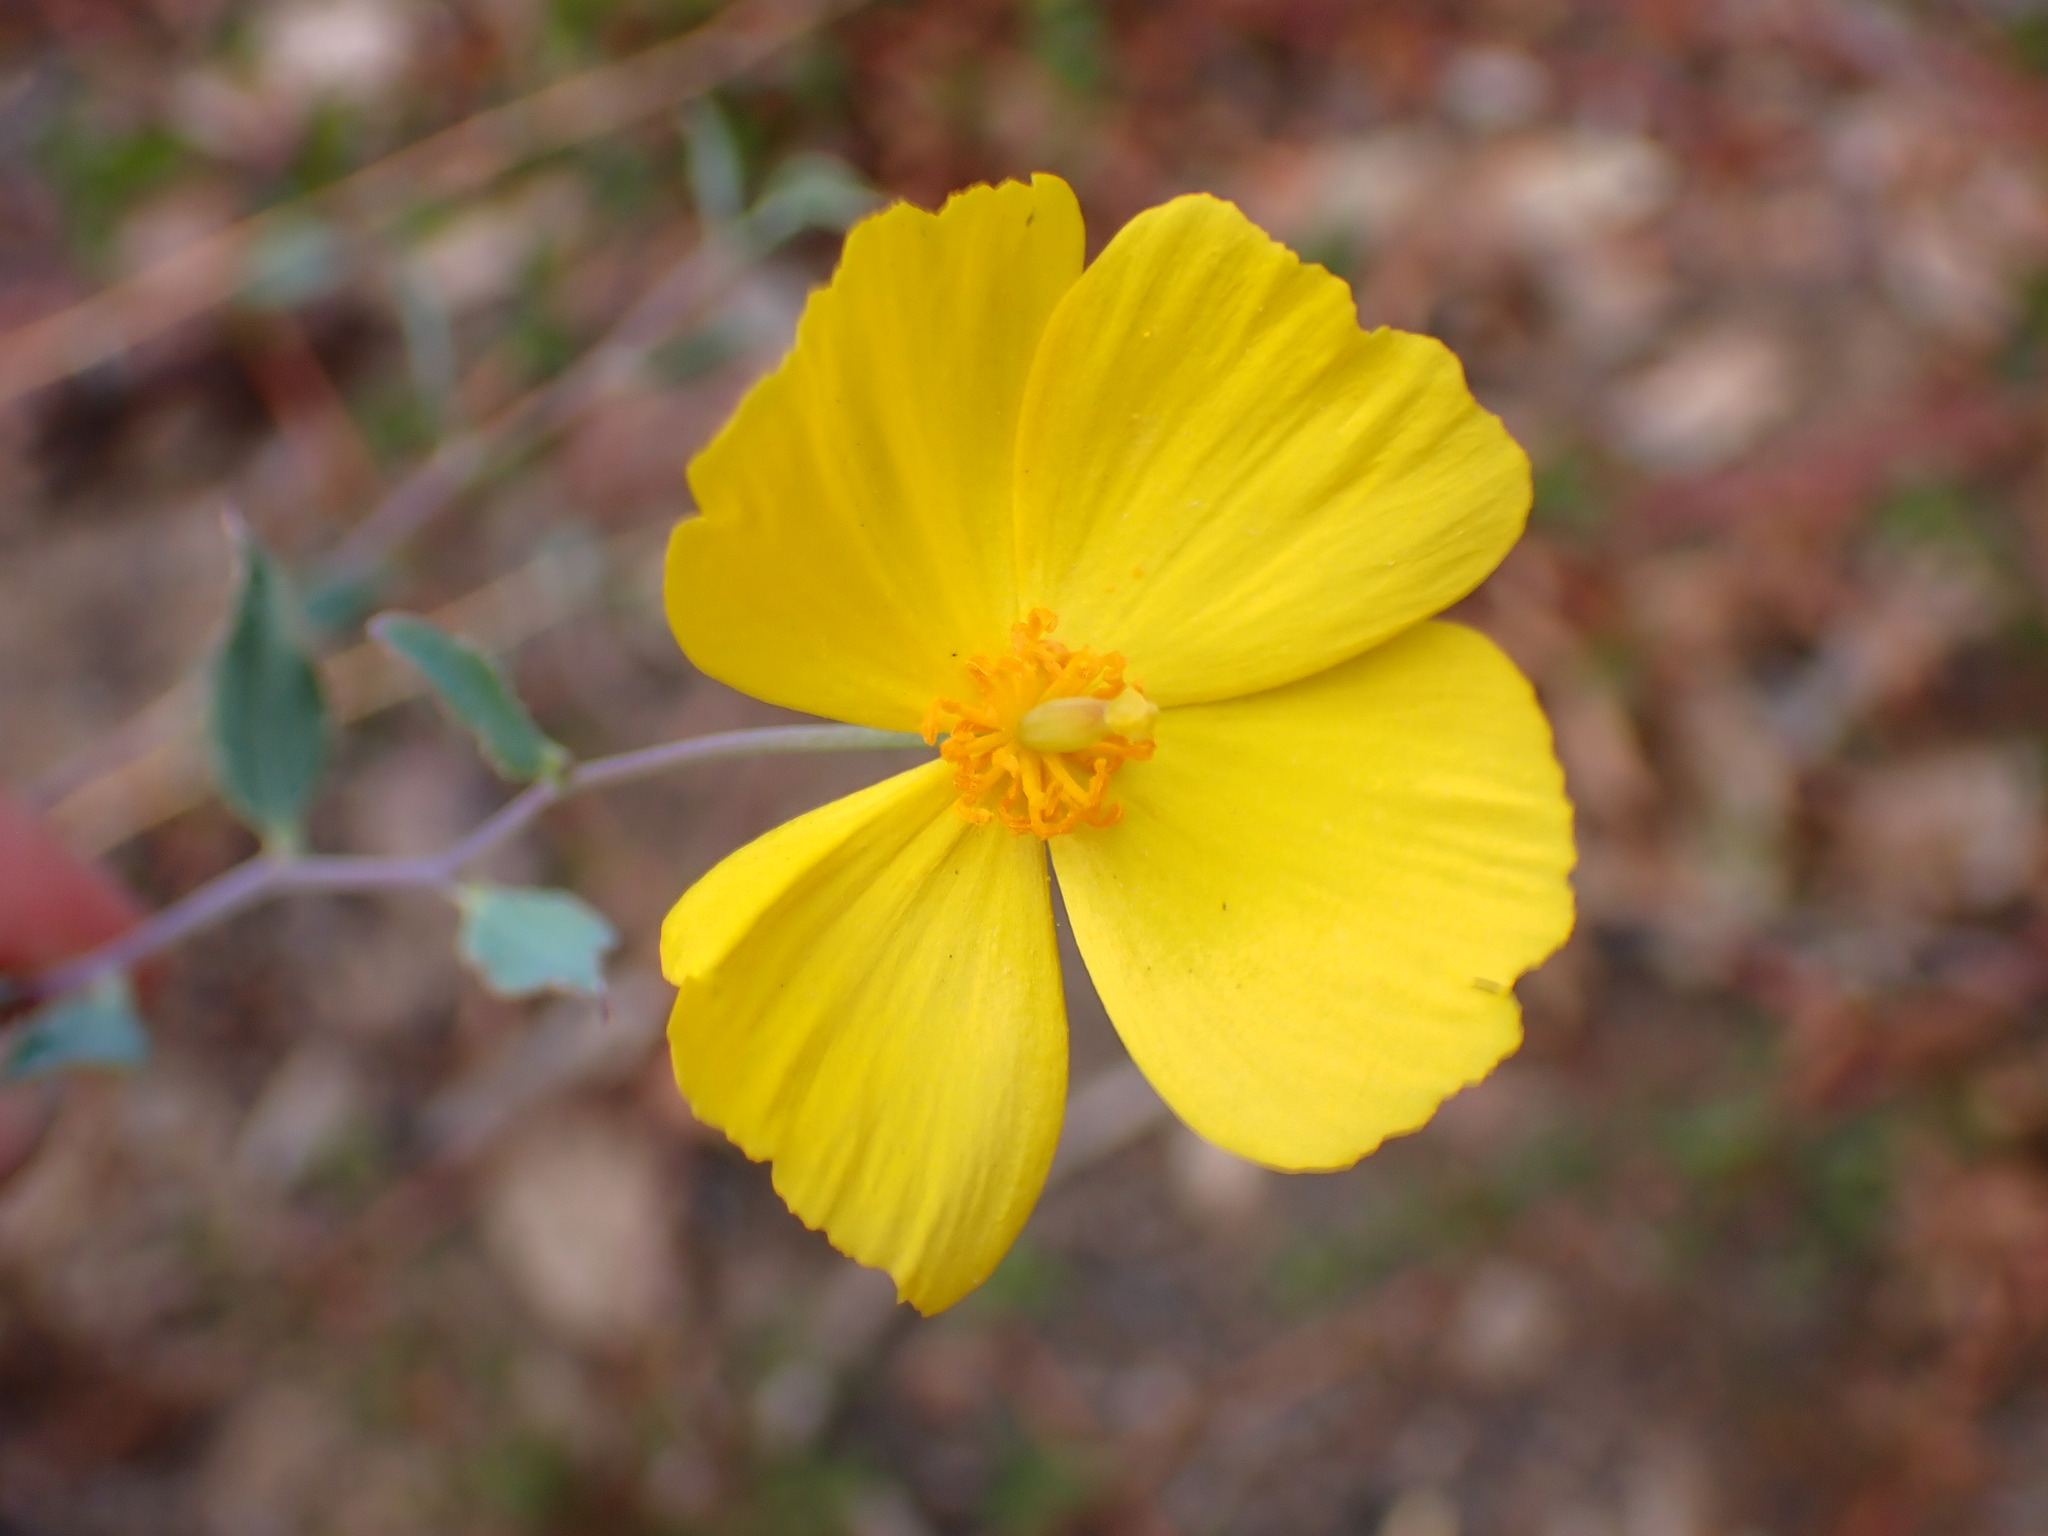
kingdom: Plantae
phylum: Tracheophyta
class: Magnoliopsida
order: Ranunculales
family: Papaveraceae
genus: Dendromecon
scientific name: Dendromecon rigida
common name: Tree poppy
